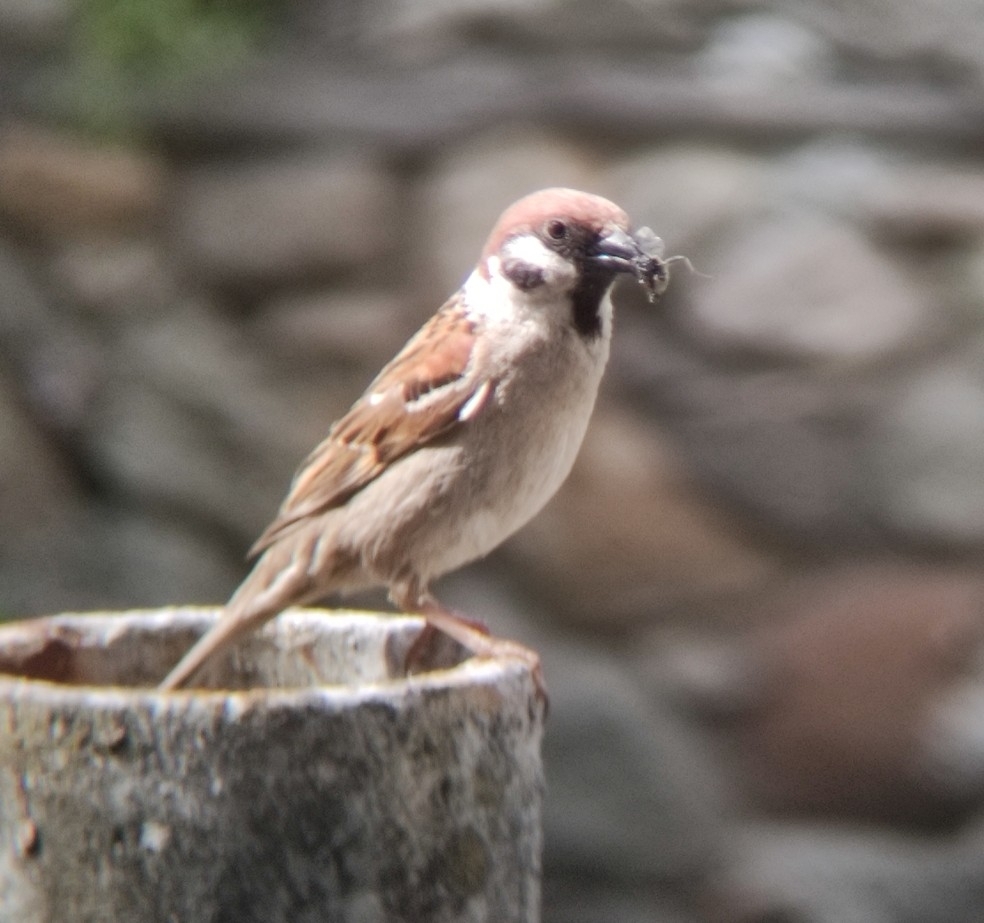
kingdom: Animalia
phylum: Chordata
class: Aves
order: Passeriformes
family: Passeridae
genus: Passer
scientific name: Passer montanus
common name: Eurasian tree sparrow
